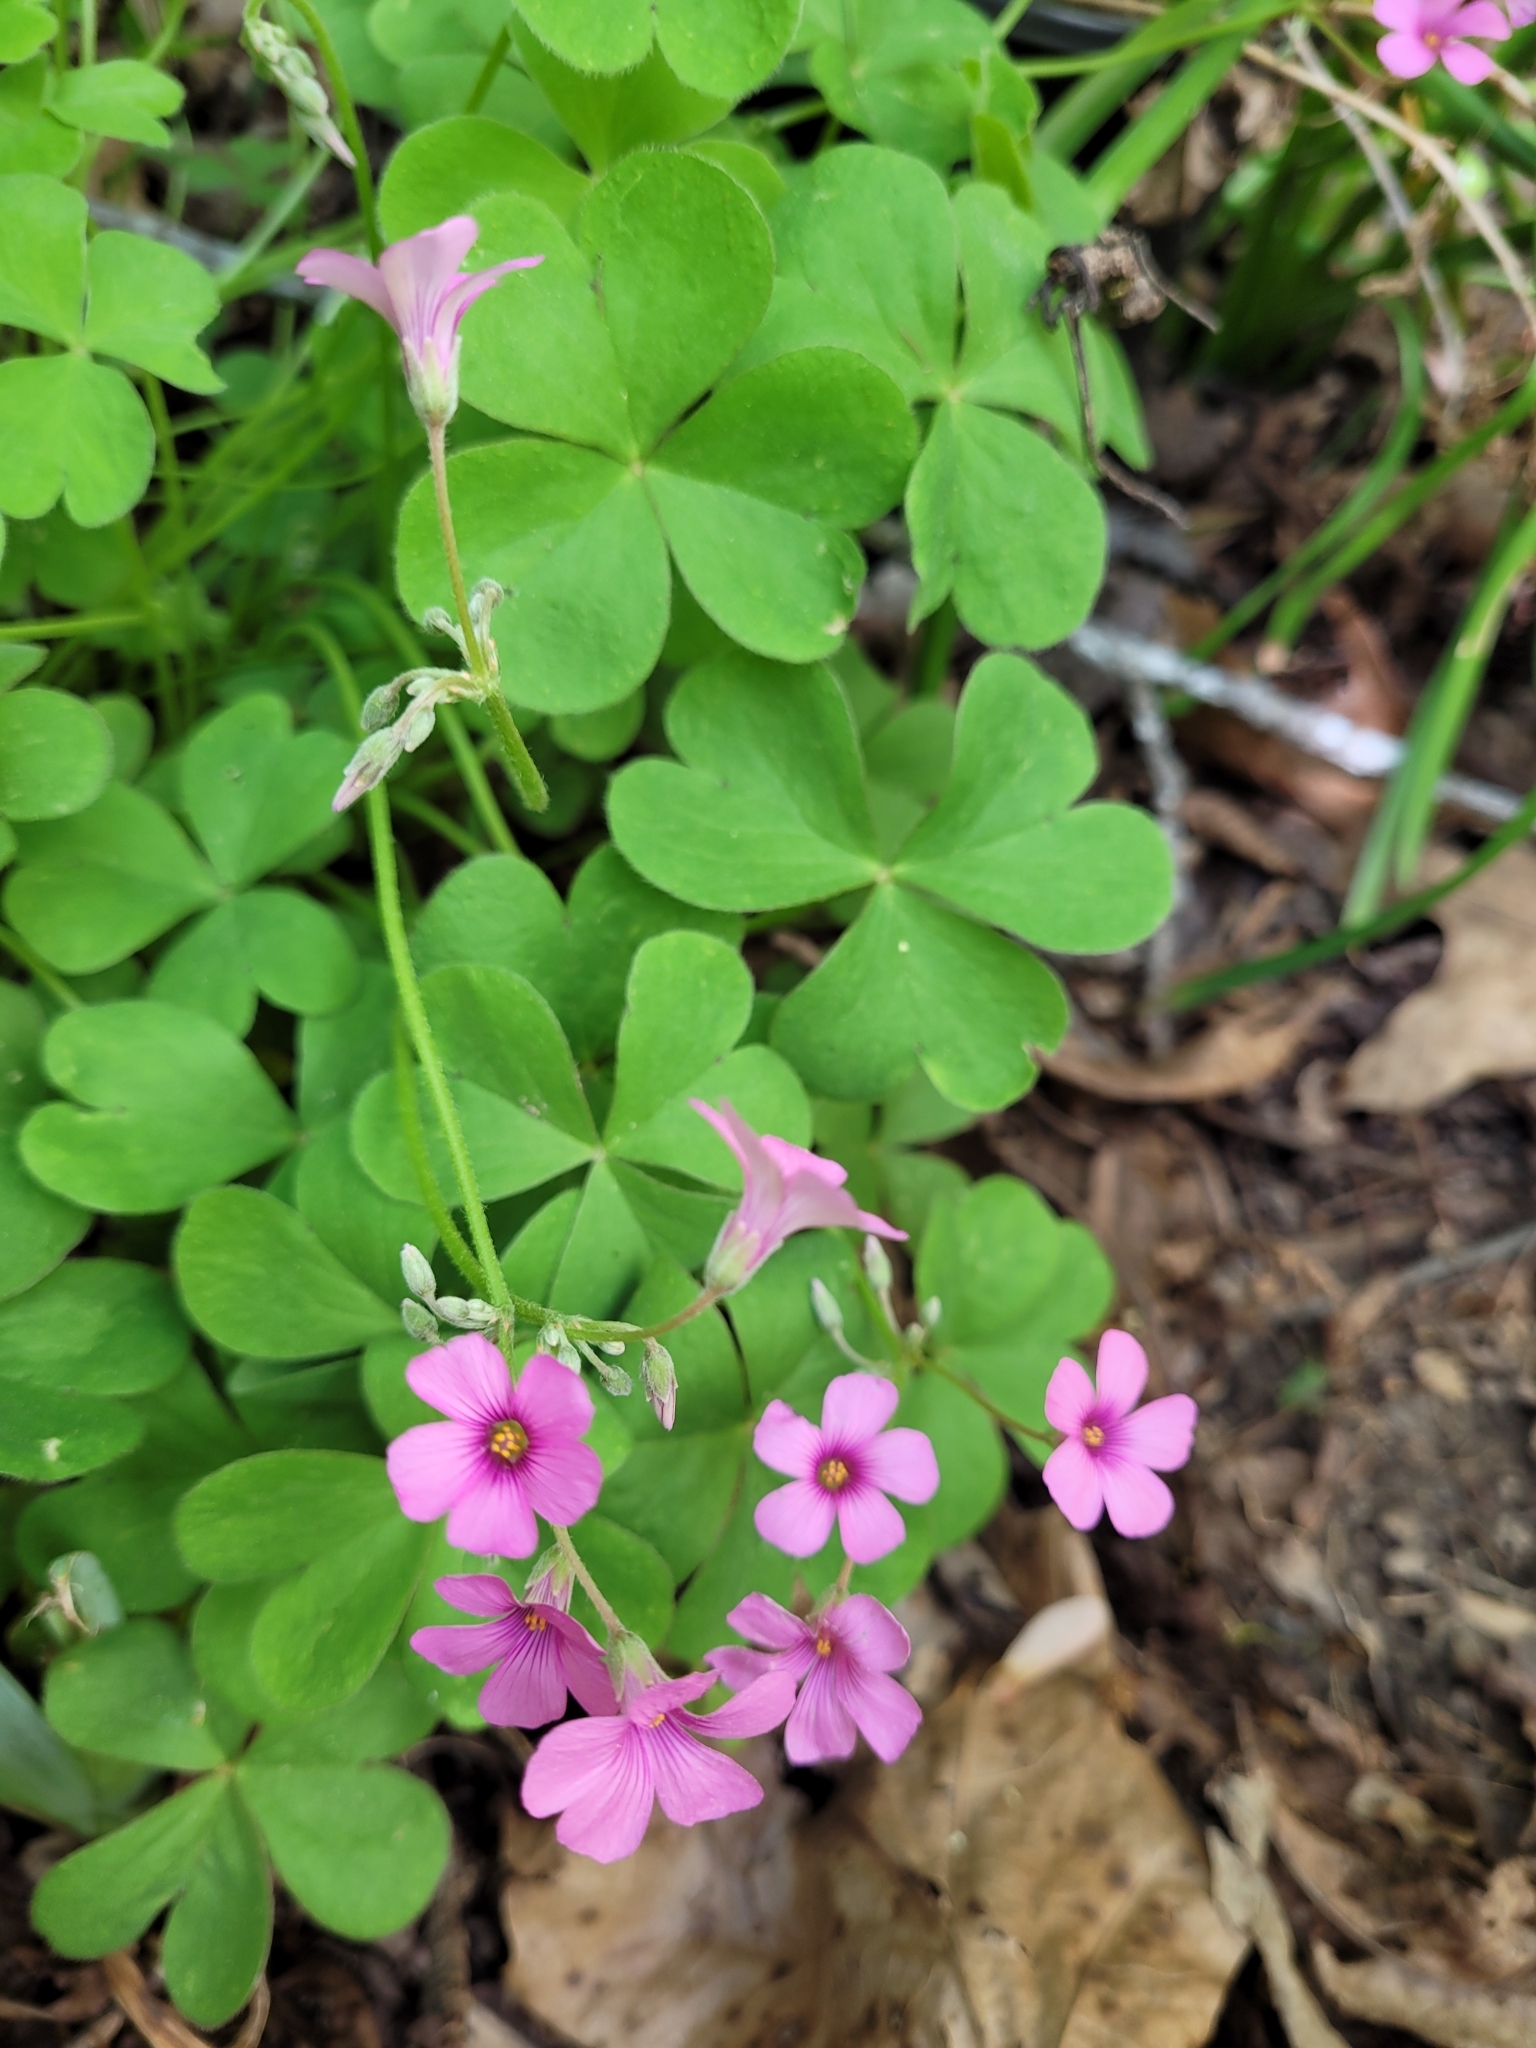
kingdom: Plantae
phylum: Tracheophyta
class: Magnoliopsida
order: Oxalidales
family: Oxalidaceae
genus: Oxalis
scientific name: Oxalis articulata
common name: Pink-sorrel
